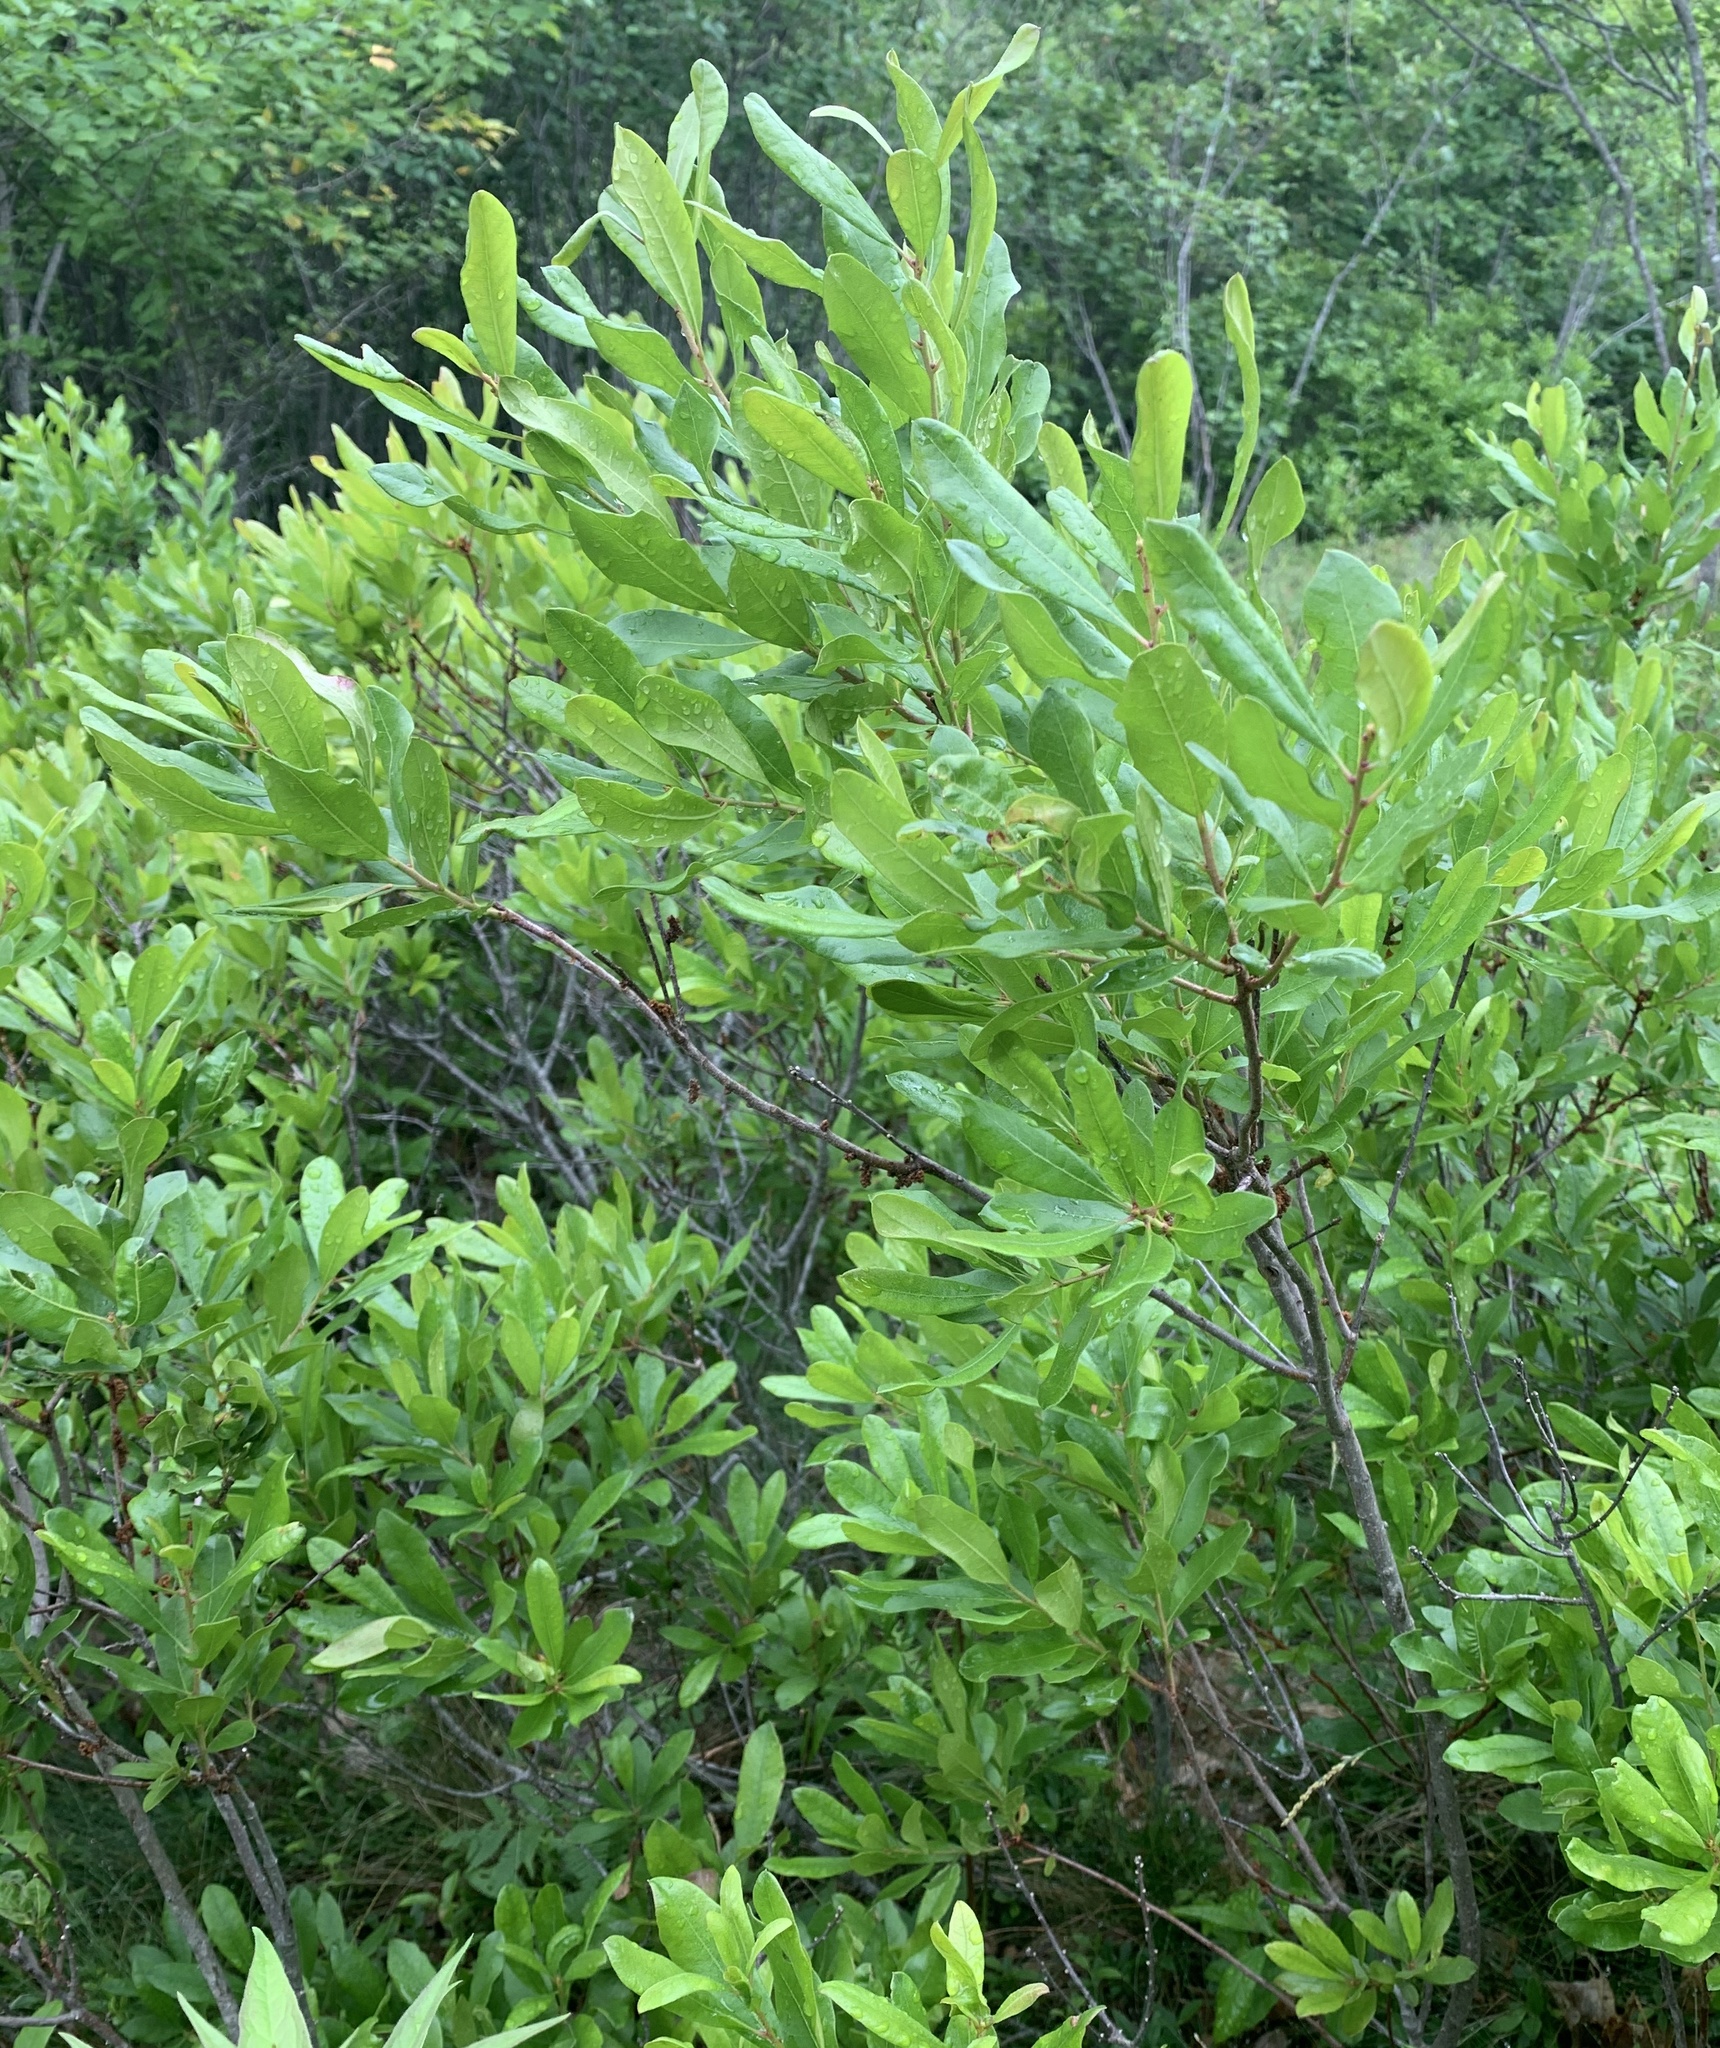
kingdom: Plantae
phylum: Tracheophyta
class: Magnoliopsida
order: Fagales
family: Myricaceae
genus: Morella
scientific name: Morella pensylvanica
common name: Northern bayberry
